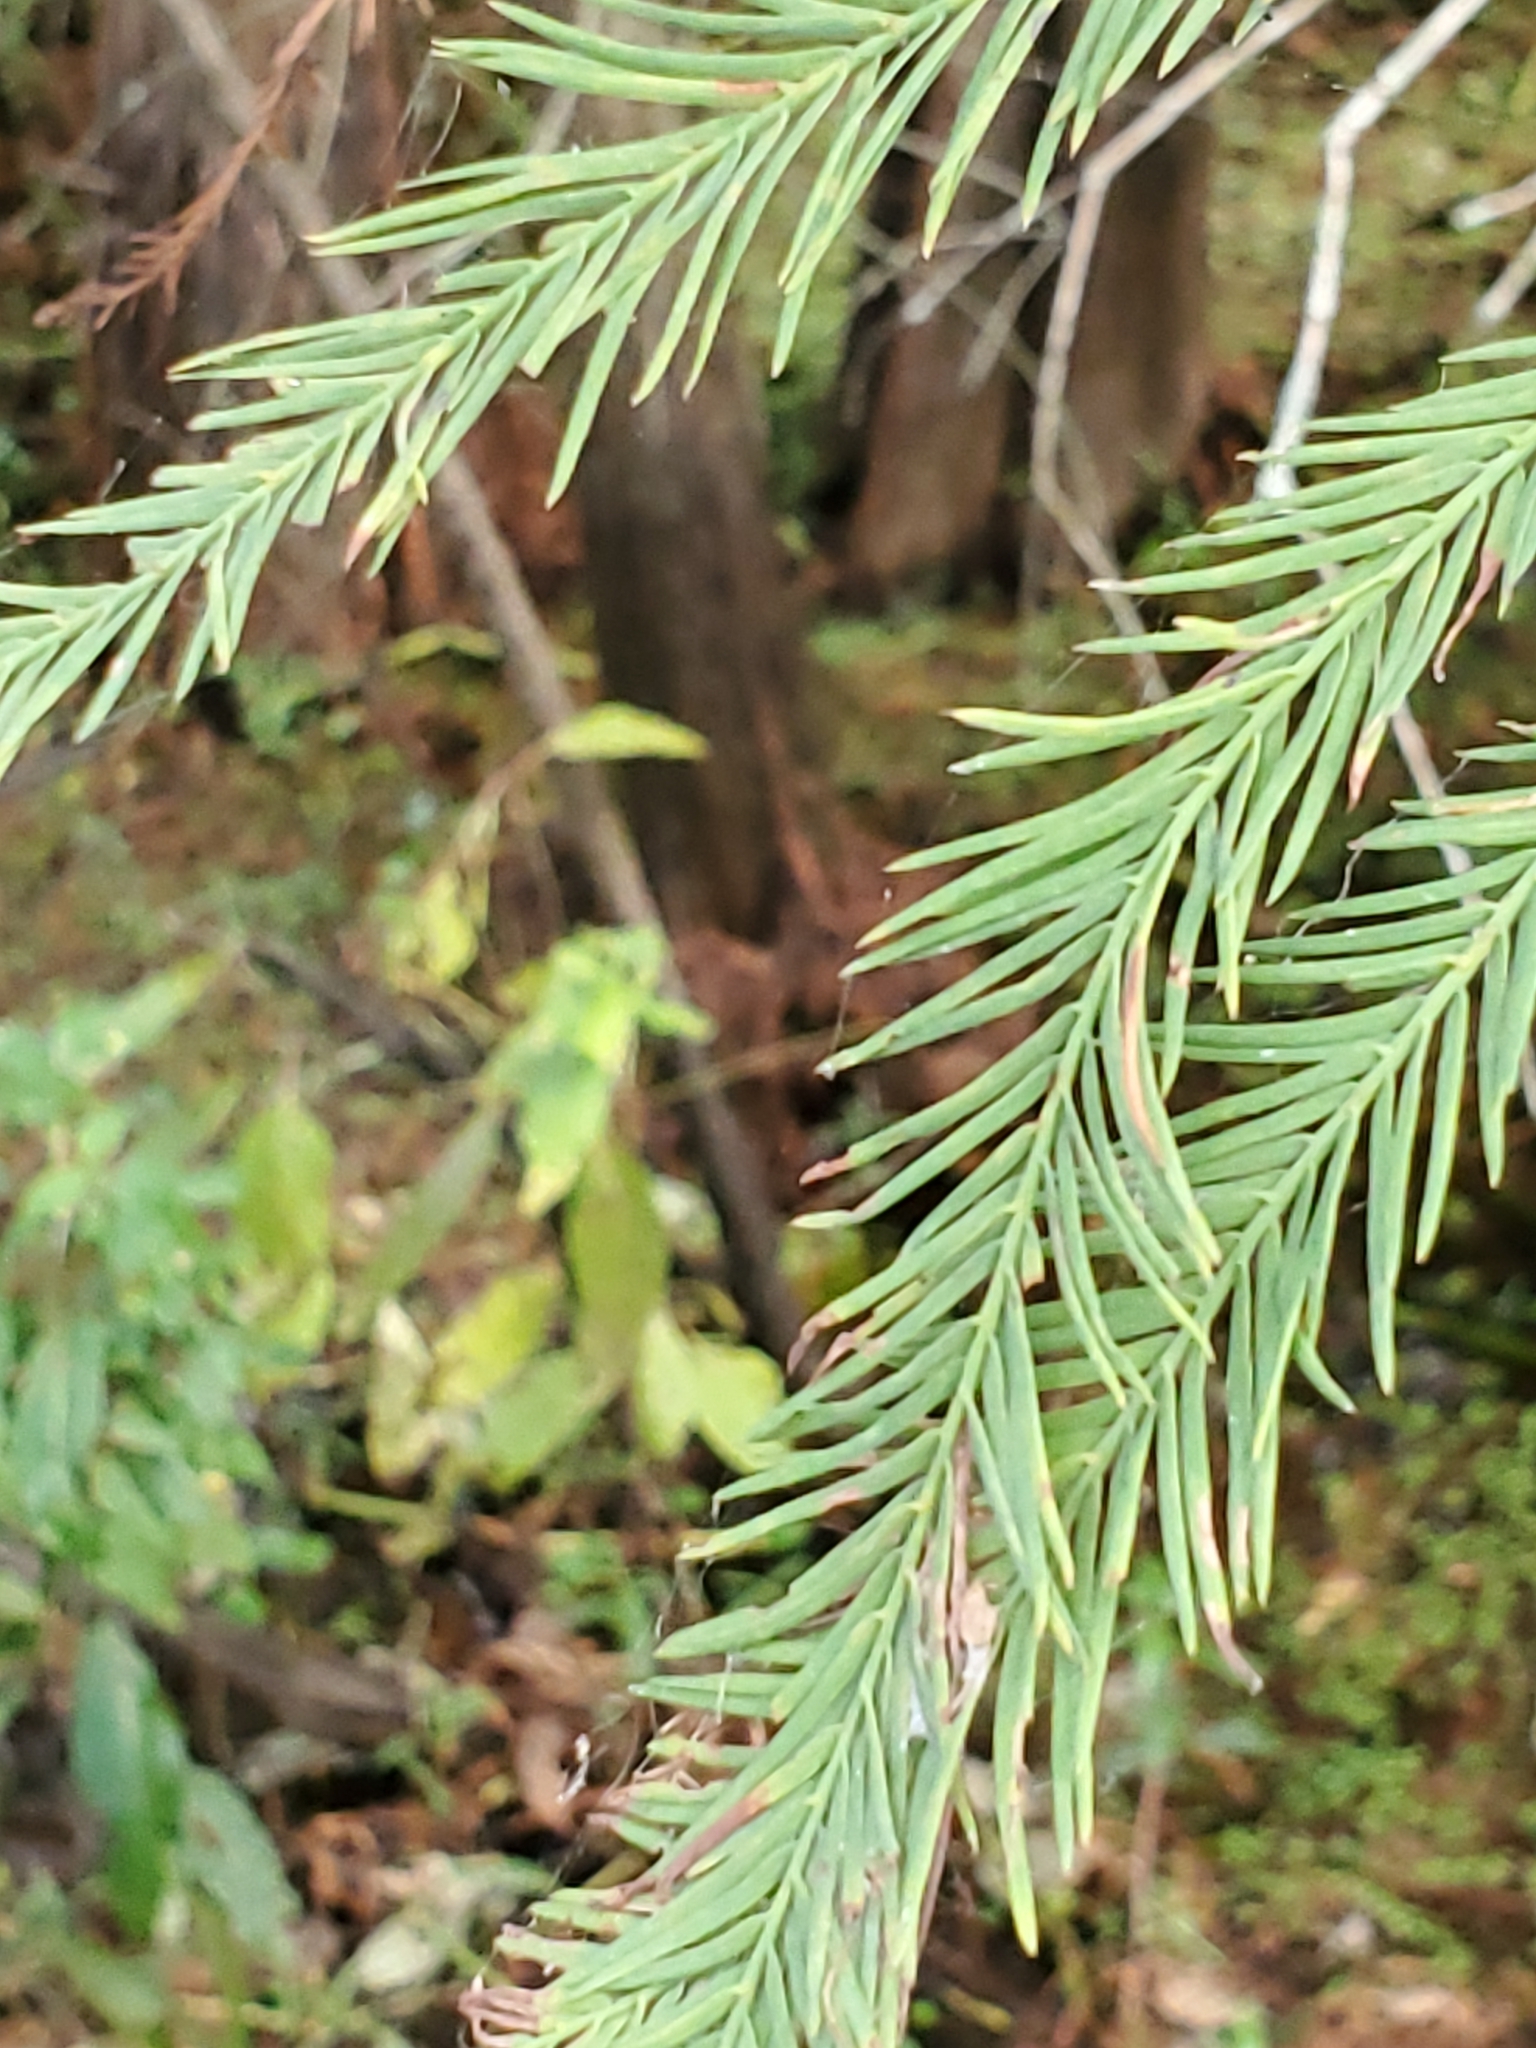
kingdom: Plantae
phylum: Tracheophyta
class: Pinopsida
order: Pinales
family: Cupressaceae
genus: Taxodium
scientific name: Taxodium distichum
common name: Bald cypress
